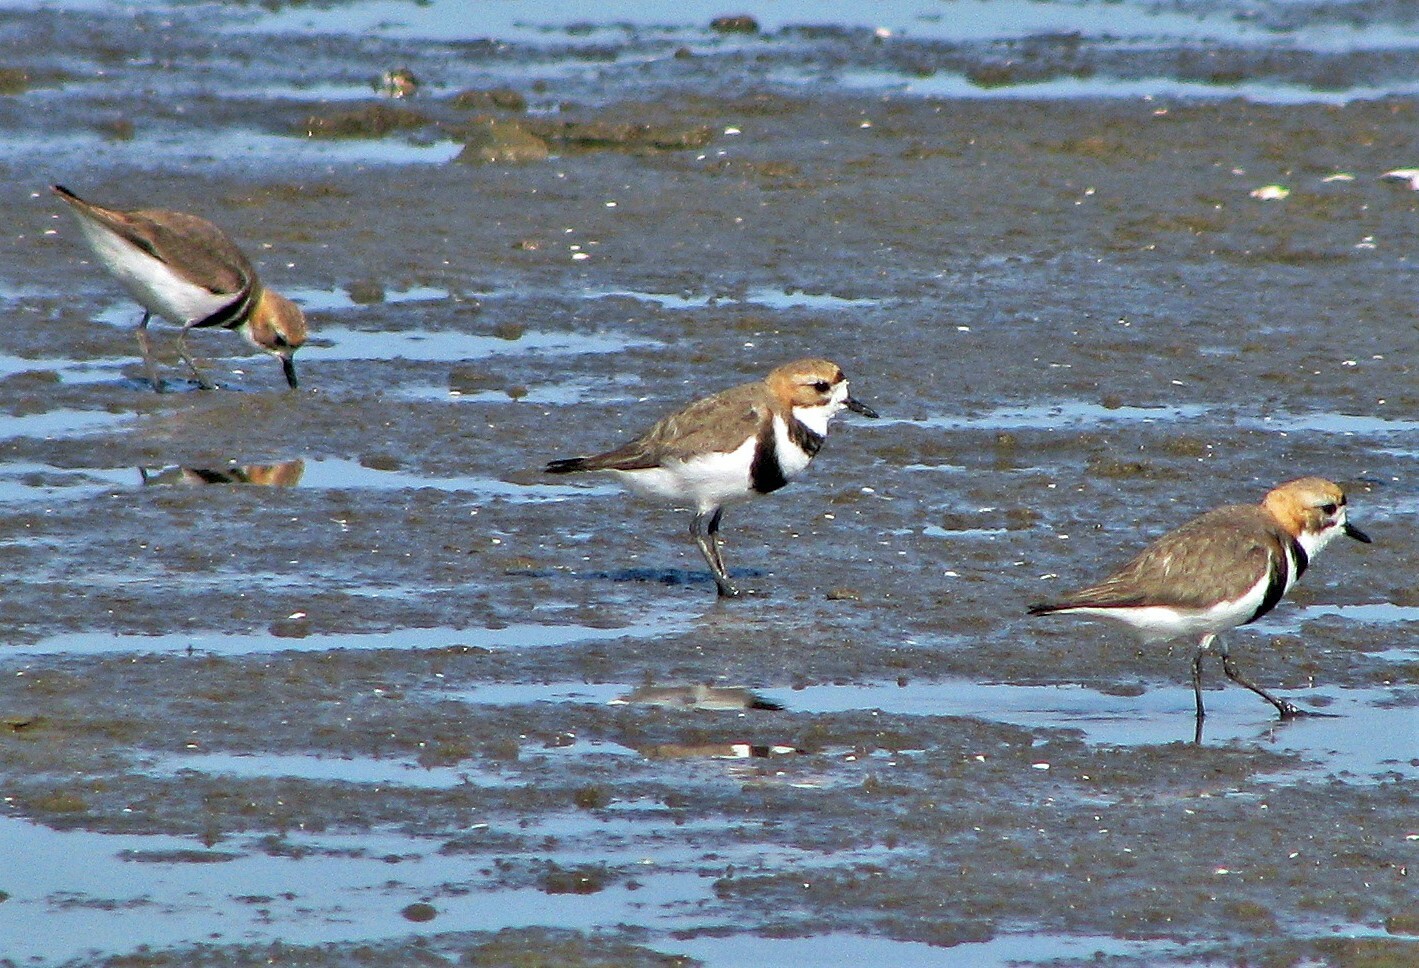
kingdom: Animalia
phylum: Chordata
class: Aves
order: Charadriiformes
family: Charadriidae
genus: Anarhynchus
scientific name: Anarhynchus
